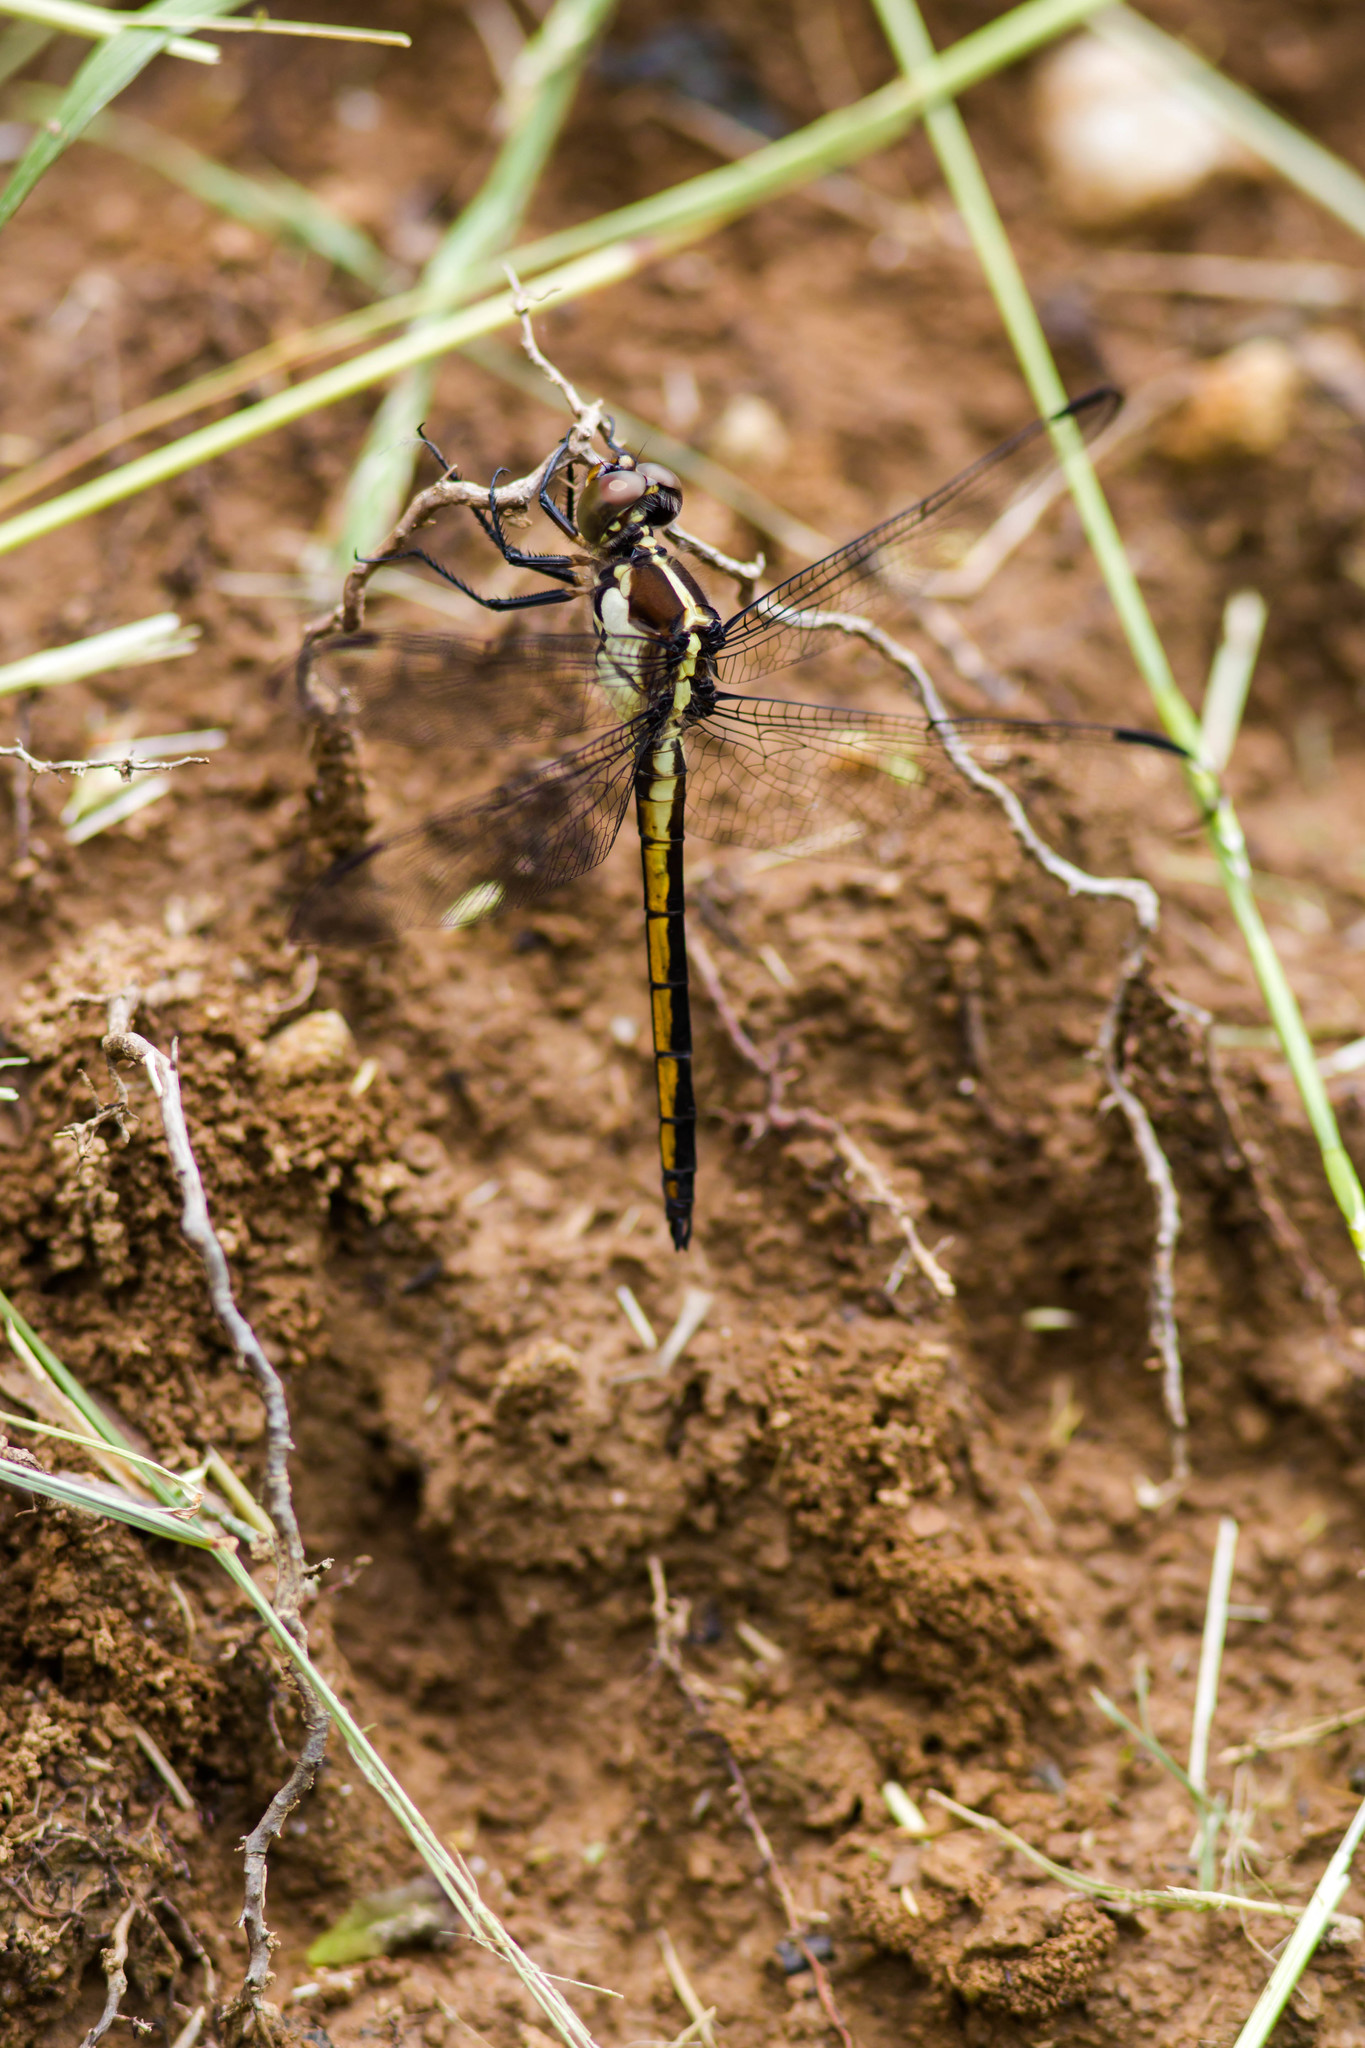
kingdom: Animalia
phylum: Arthropoda
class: Insecta
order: Odonata
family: Libellulidae
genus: Libellula
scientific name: Libellula incesta
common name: Slaty skimmer
